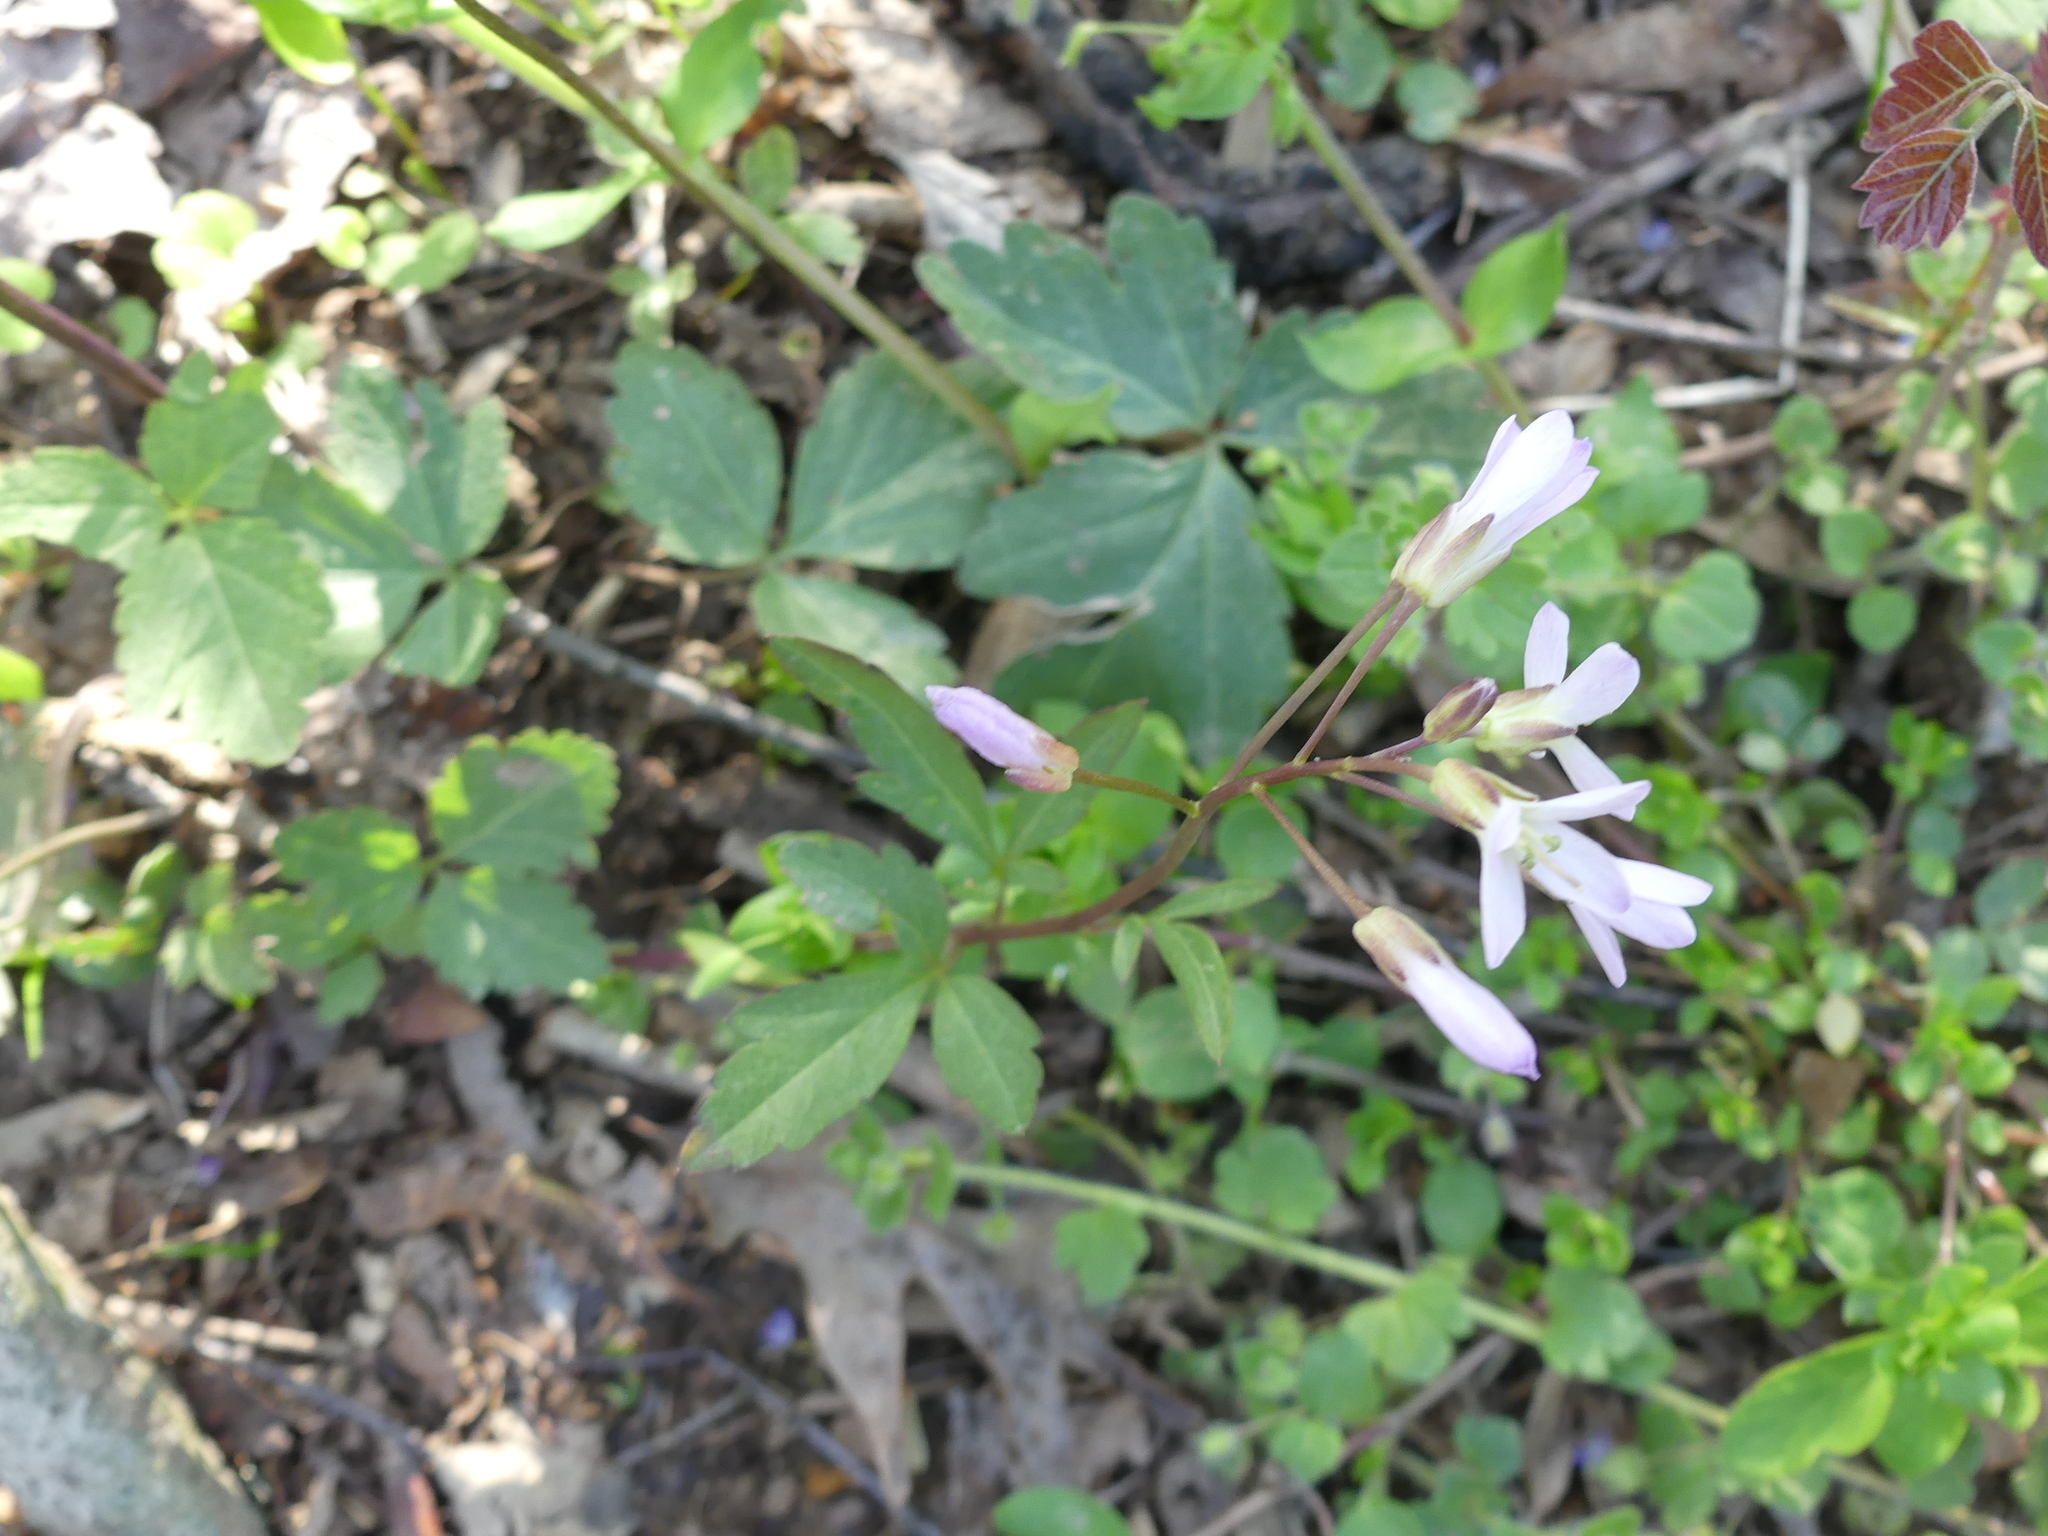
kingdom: Plantae
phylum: Tracheophyta
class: Magnoliopsida
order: Brassicales
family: Brassicaceae
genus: Cardamine
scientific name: Cardamine diphylla
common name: Broad-leaved toothwort
